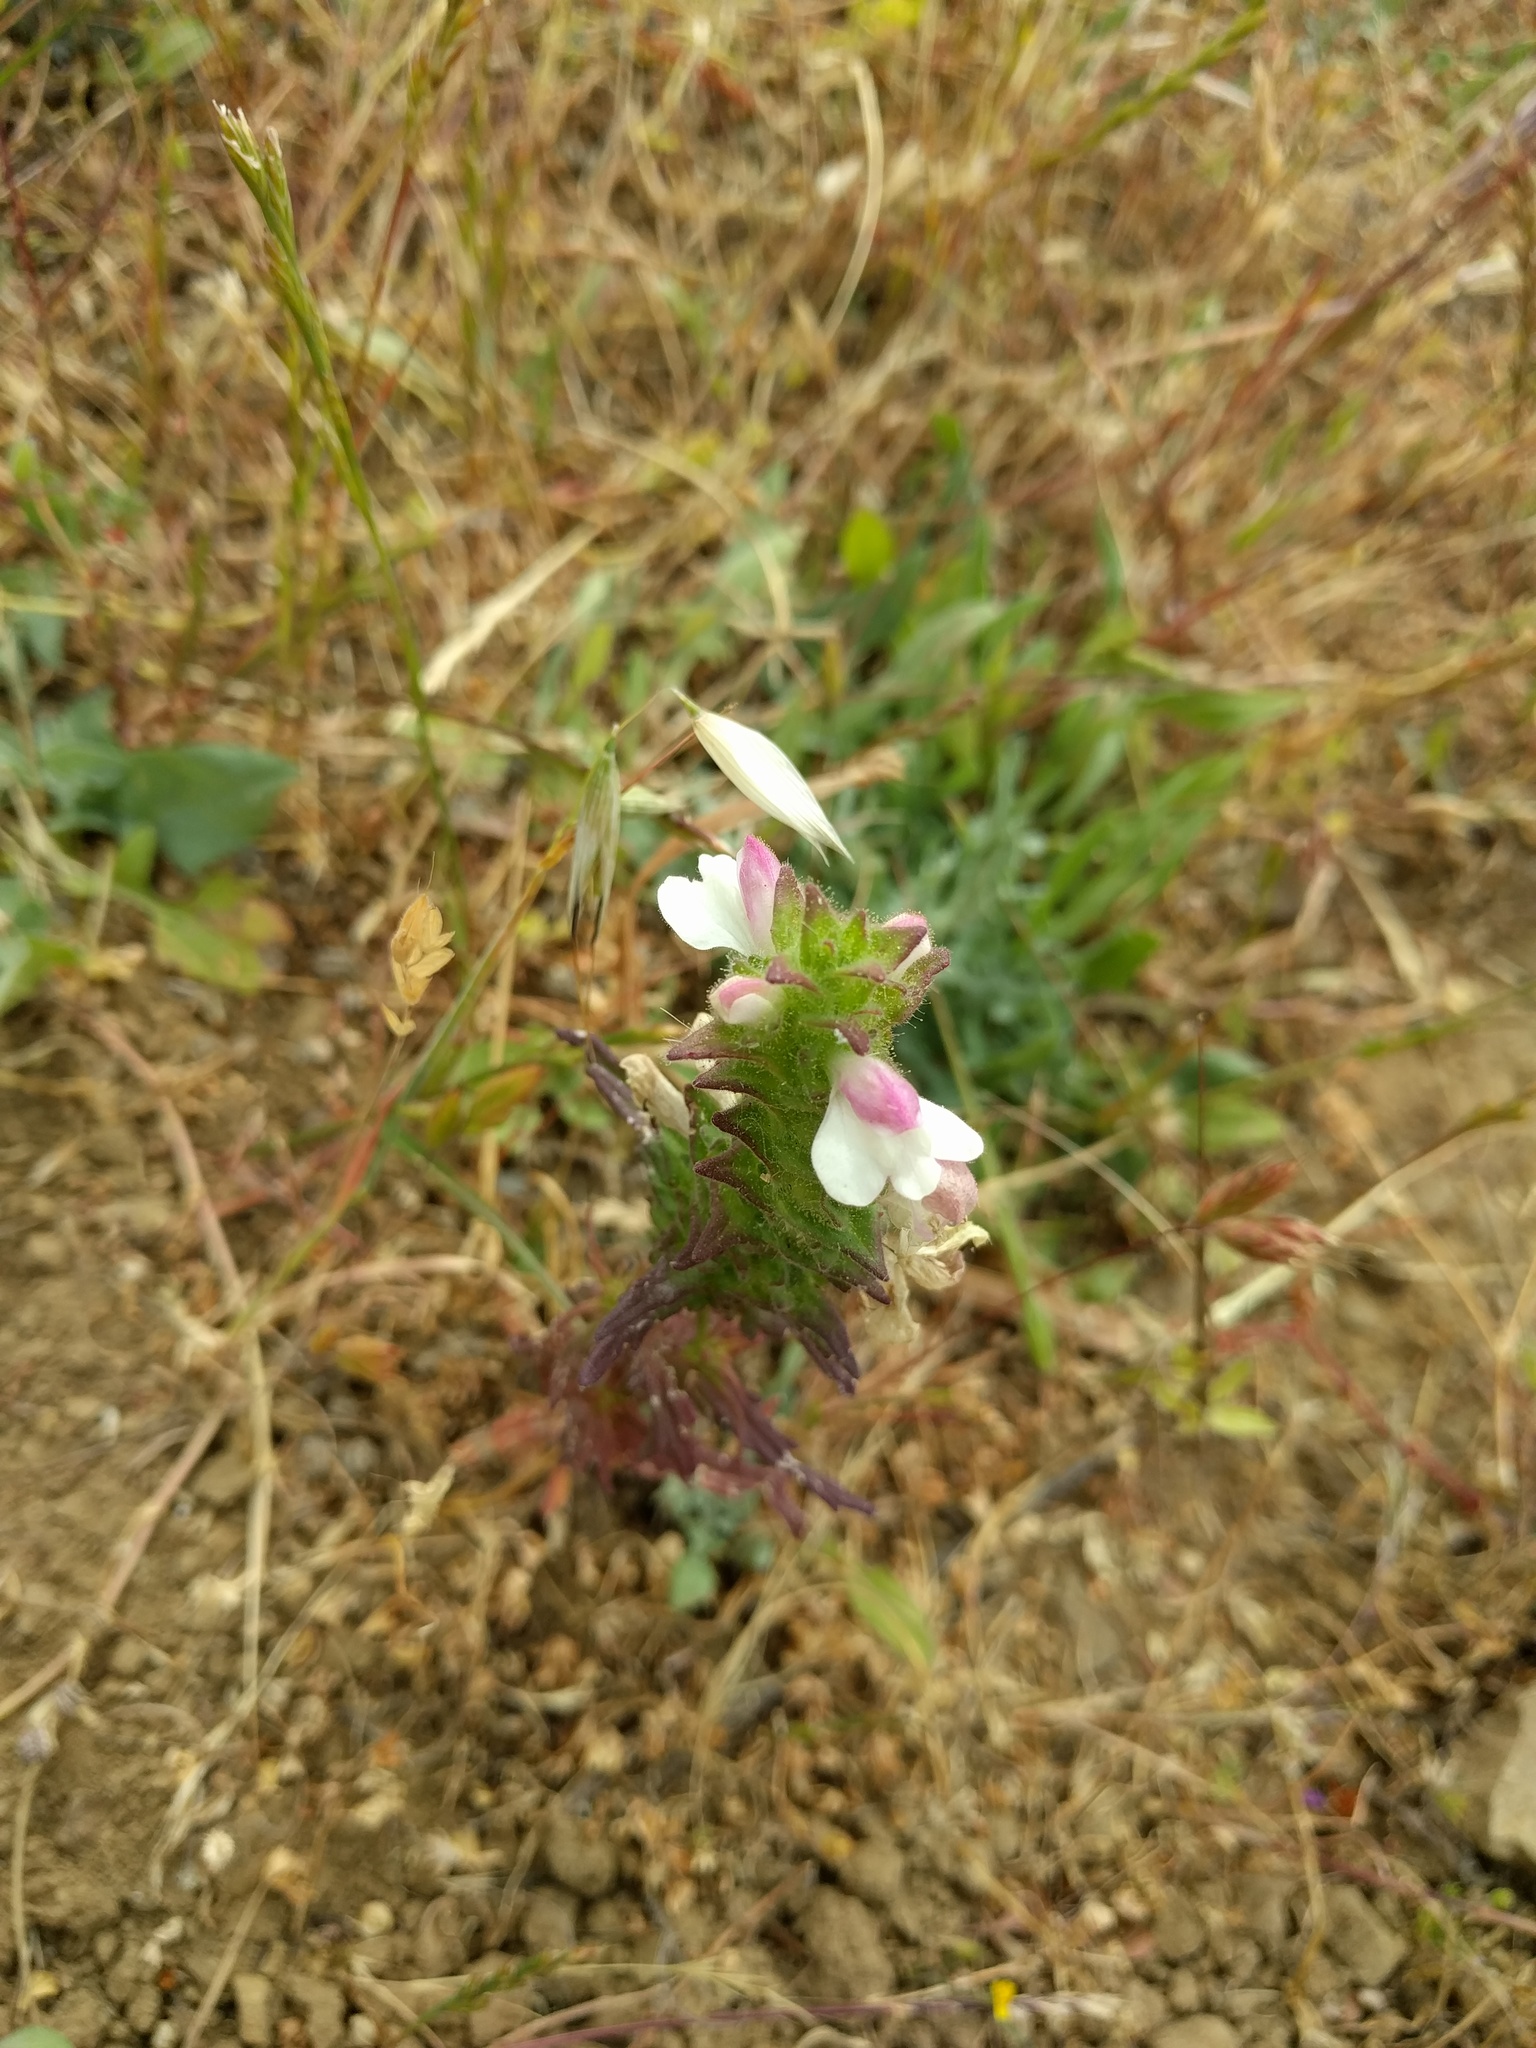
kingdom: Plantae
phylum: Tracheophyta
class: Magnoliopsida
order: Lamiales
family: Orobanchaceae
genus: Bellardia
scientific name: Bellardia trixago
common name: Mediterranean lineseed
